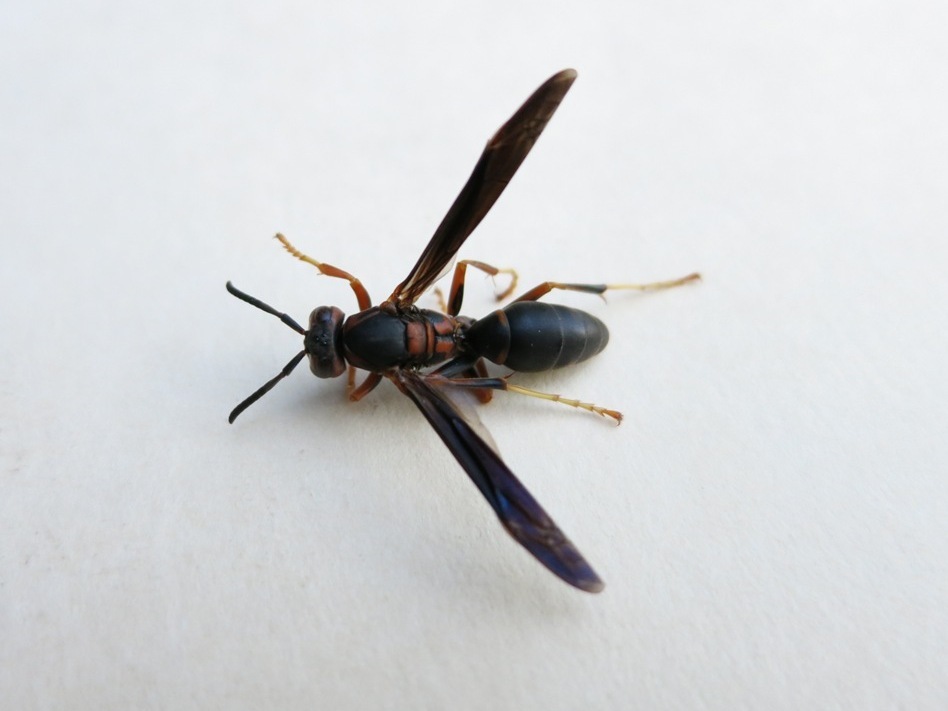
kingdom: Animalia
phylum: Arthropoda
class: Insecta
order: Hymenoptera
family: Eumenidae
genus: Polistes
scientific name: Polistes metricus
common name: Metric paper wasp
